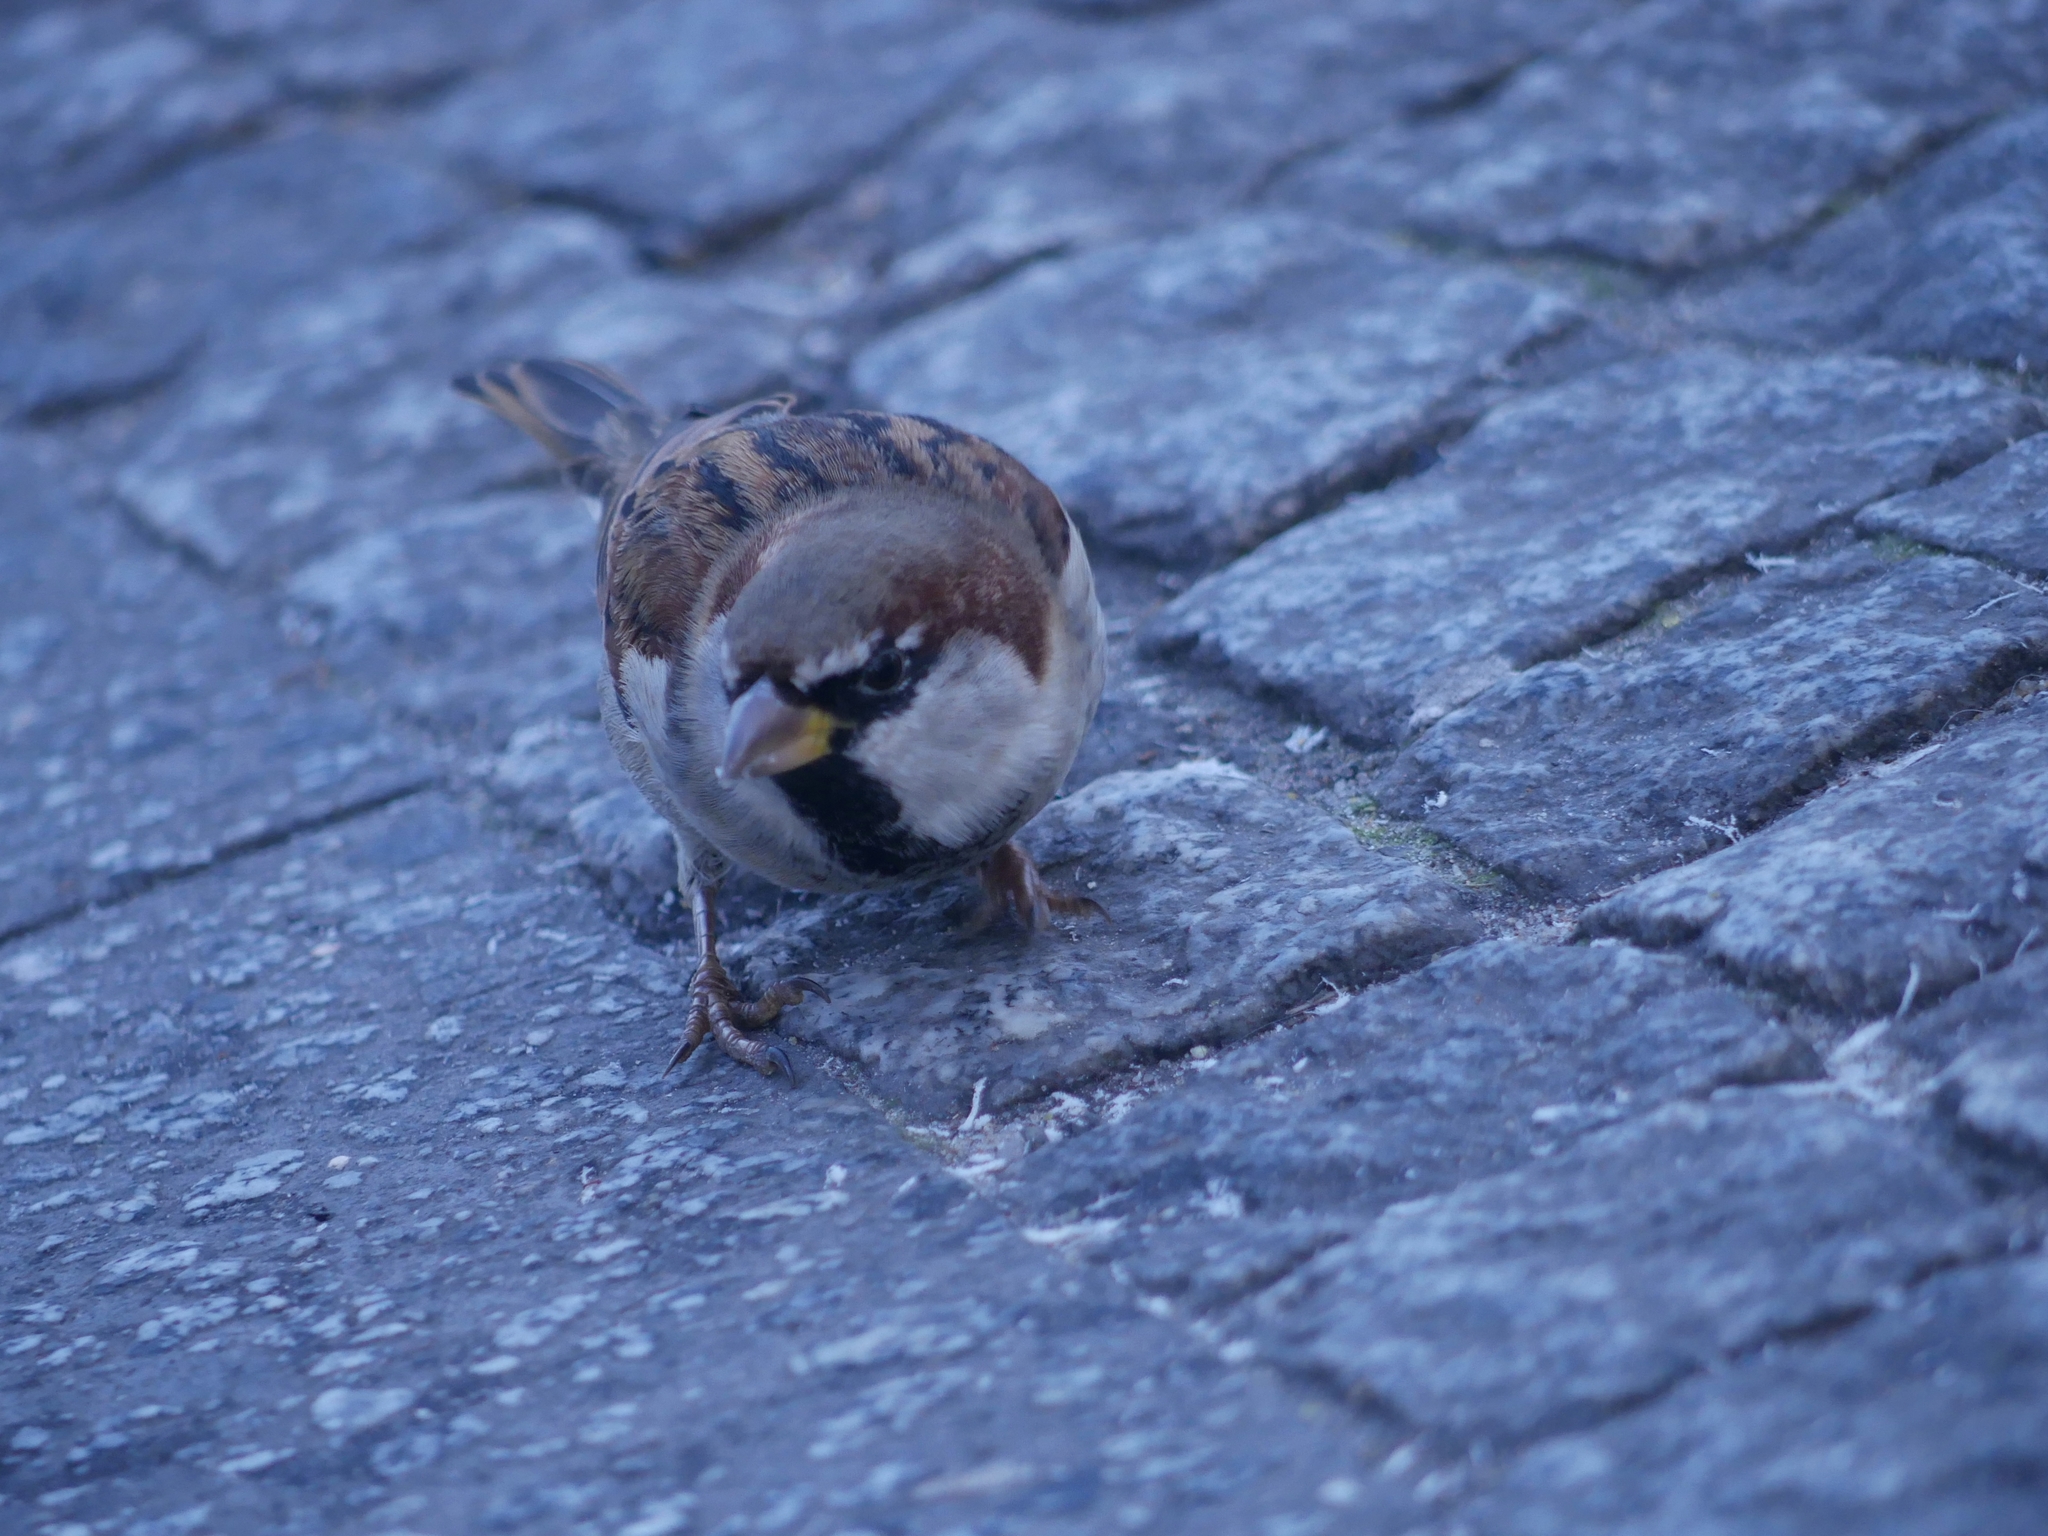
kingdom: Animalia
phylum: Chordata
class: Aves
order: Passeriformes
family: Passeridae
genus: Passer
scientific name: Passer domesticus
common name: House sparrow
